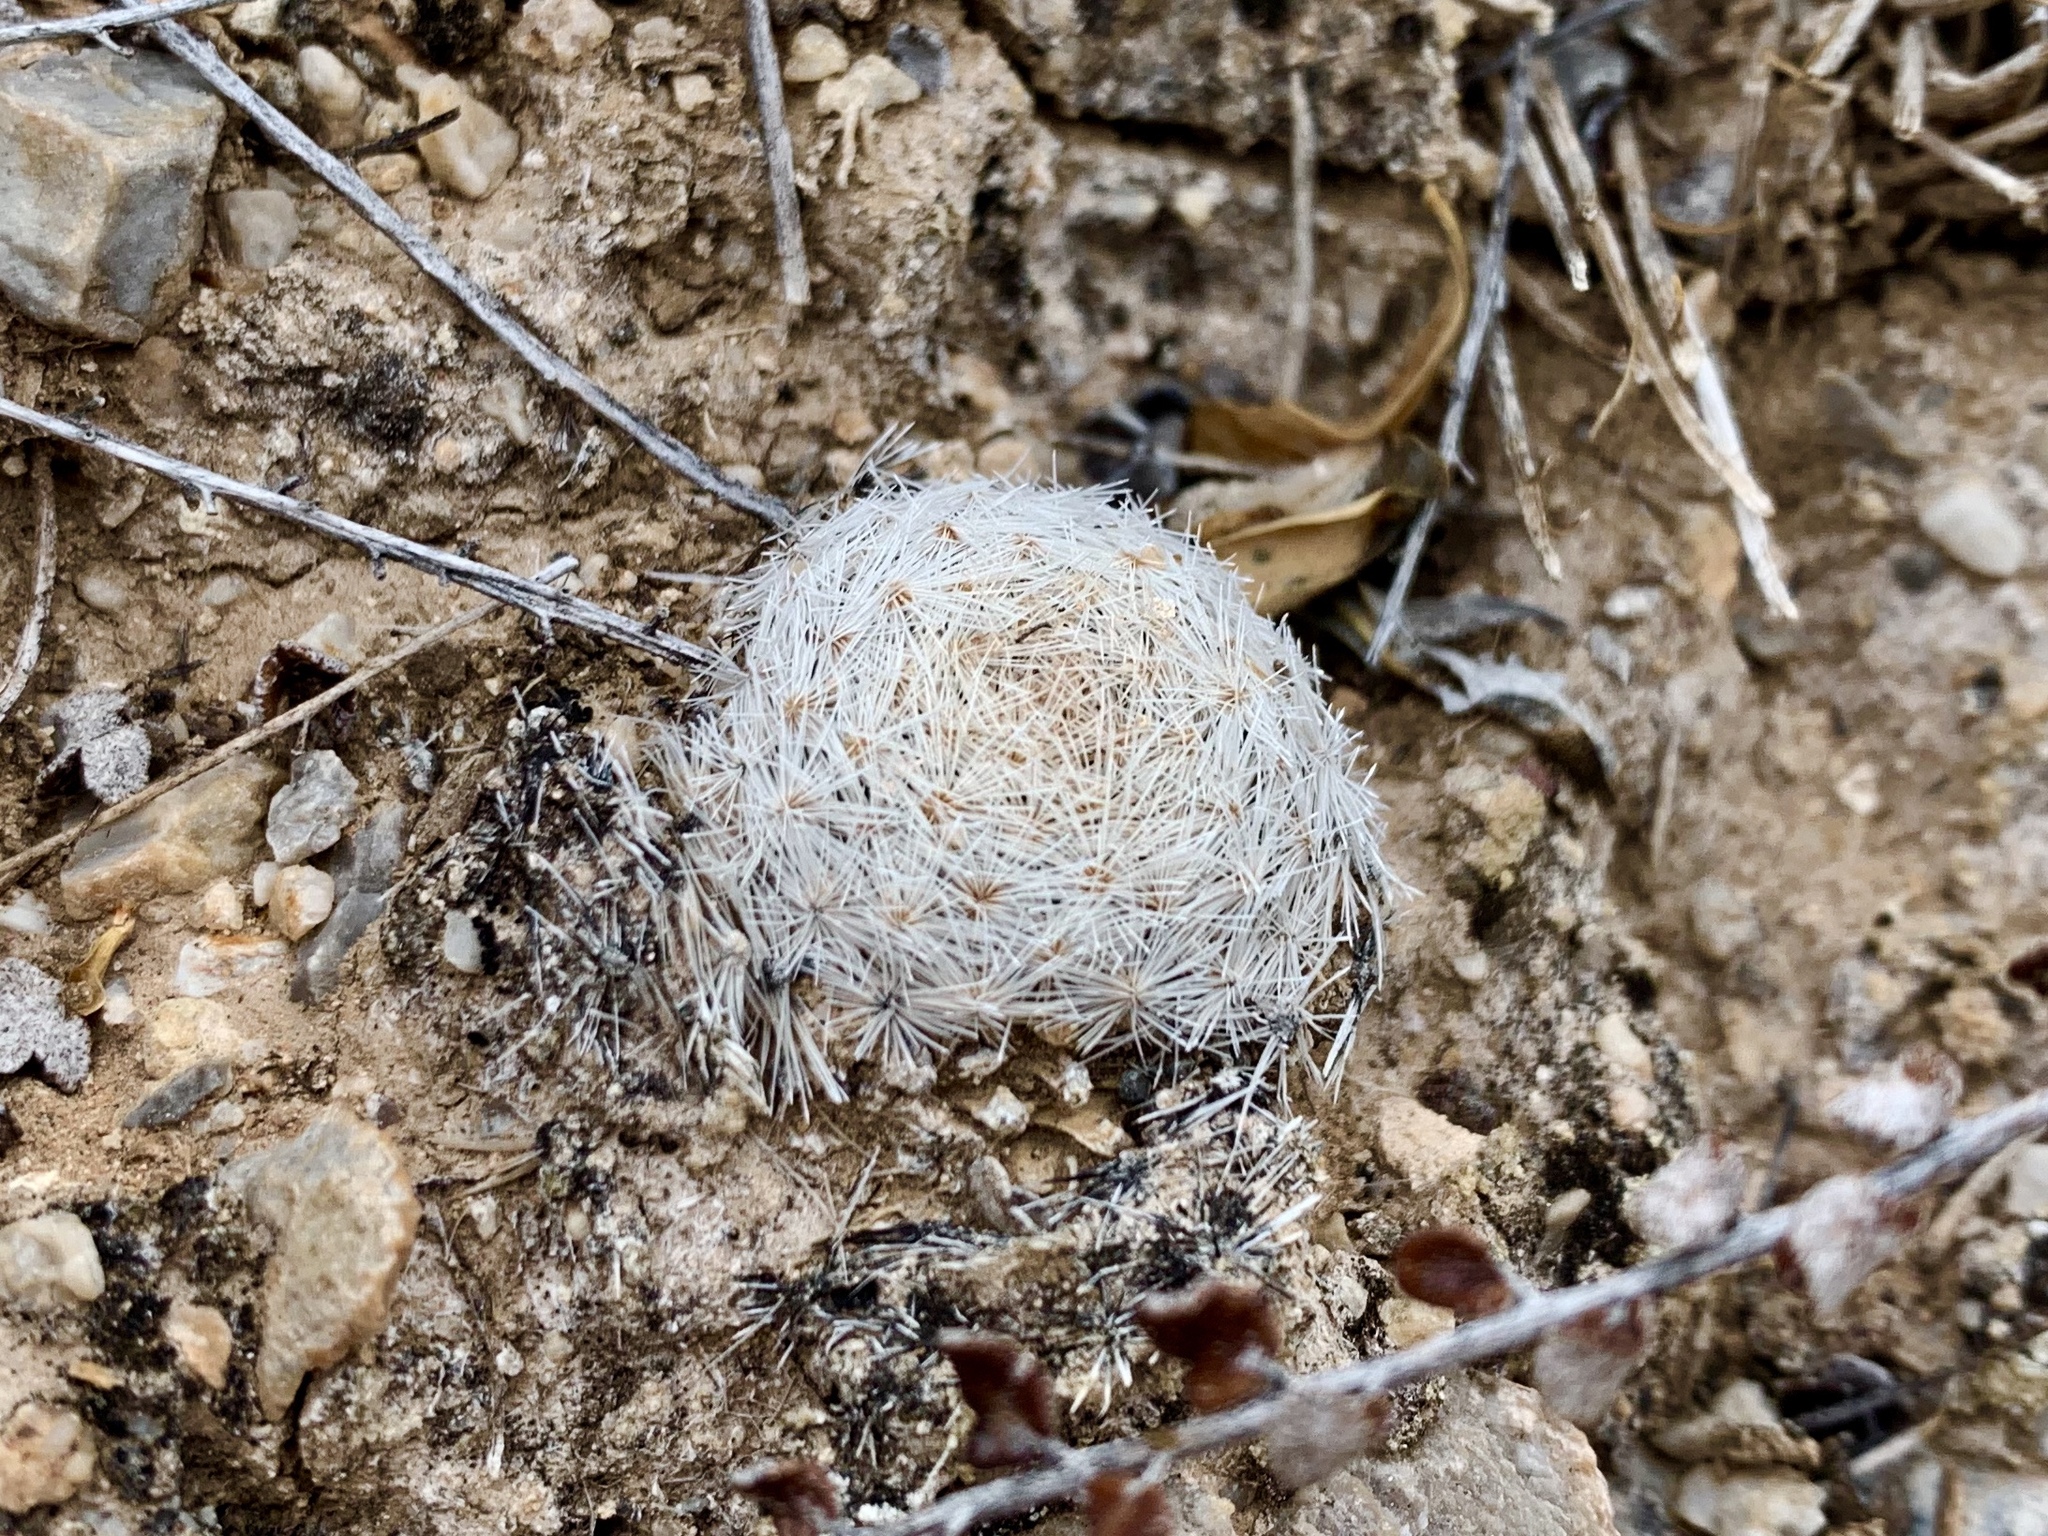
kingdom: Plantae
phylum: Tracheophyta
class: Magnoliopsida
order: Caryophyllales
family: Cactaceae
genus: Mammillaria
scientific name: Mammillaria lasiacantha
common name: Lace-spine nipple cactus
